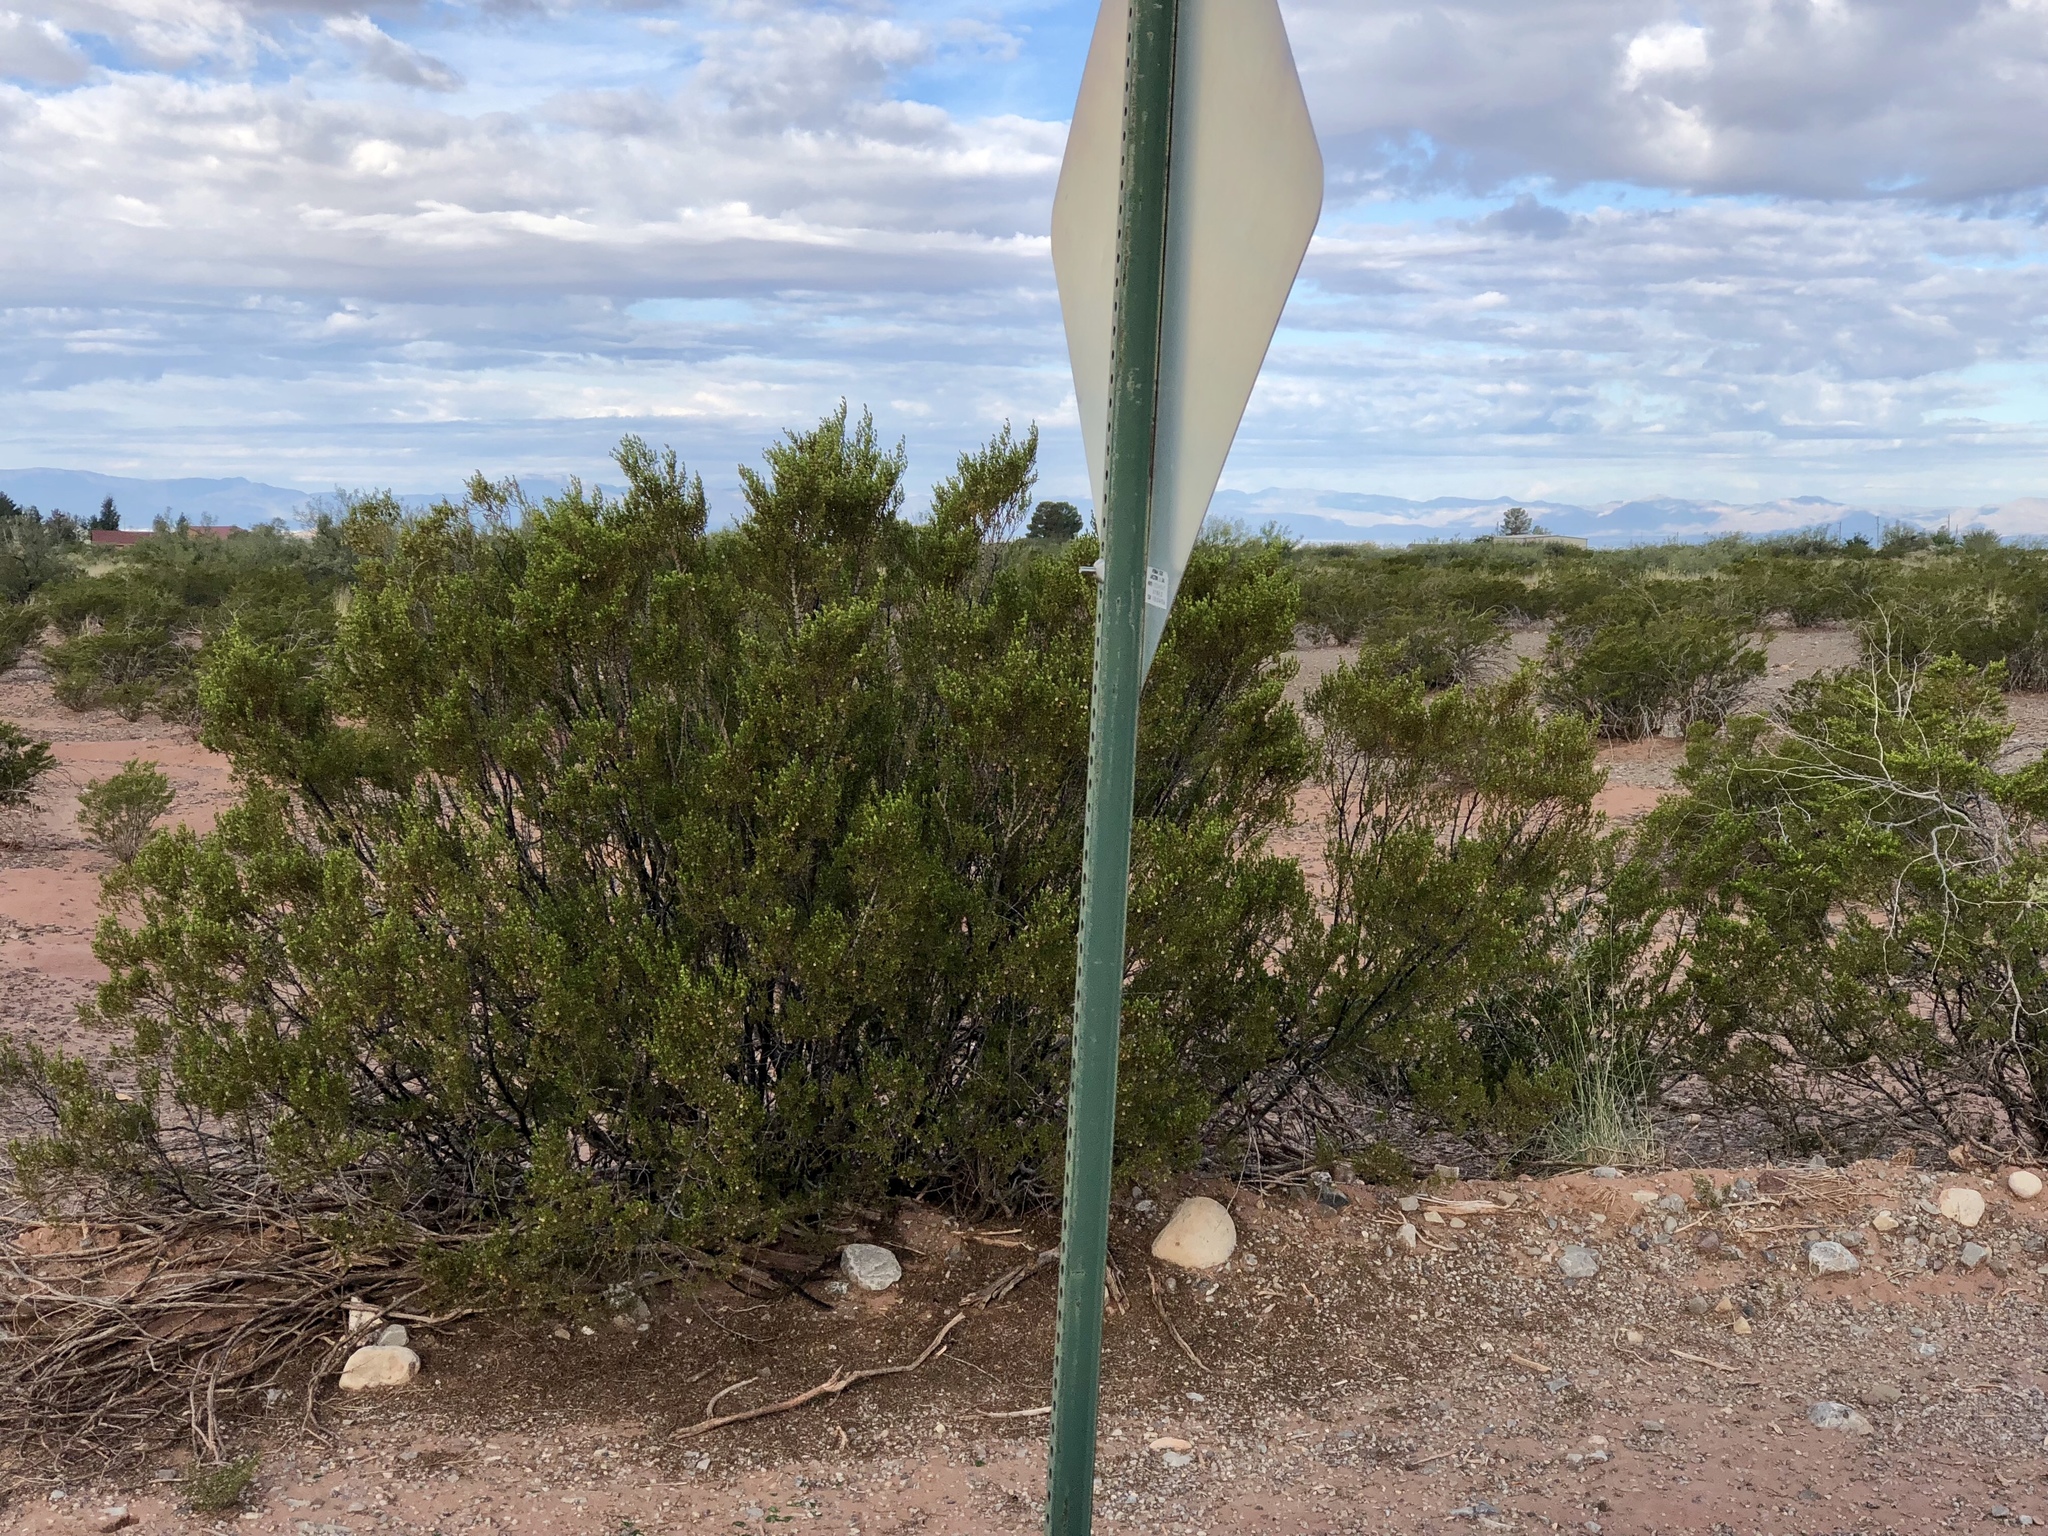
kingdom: Plantae
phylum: Tracheophyta
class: Magnoliopsida
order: Zygophyllales
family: Zygophyllaceae
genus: Larrea
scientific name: Larrea tridentata
